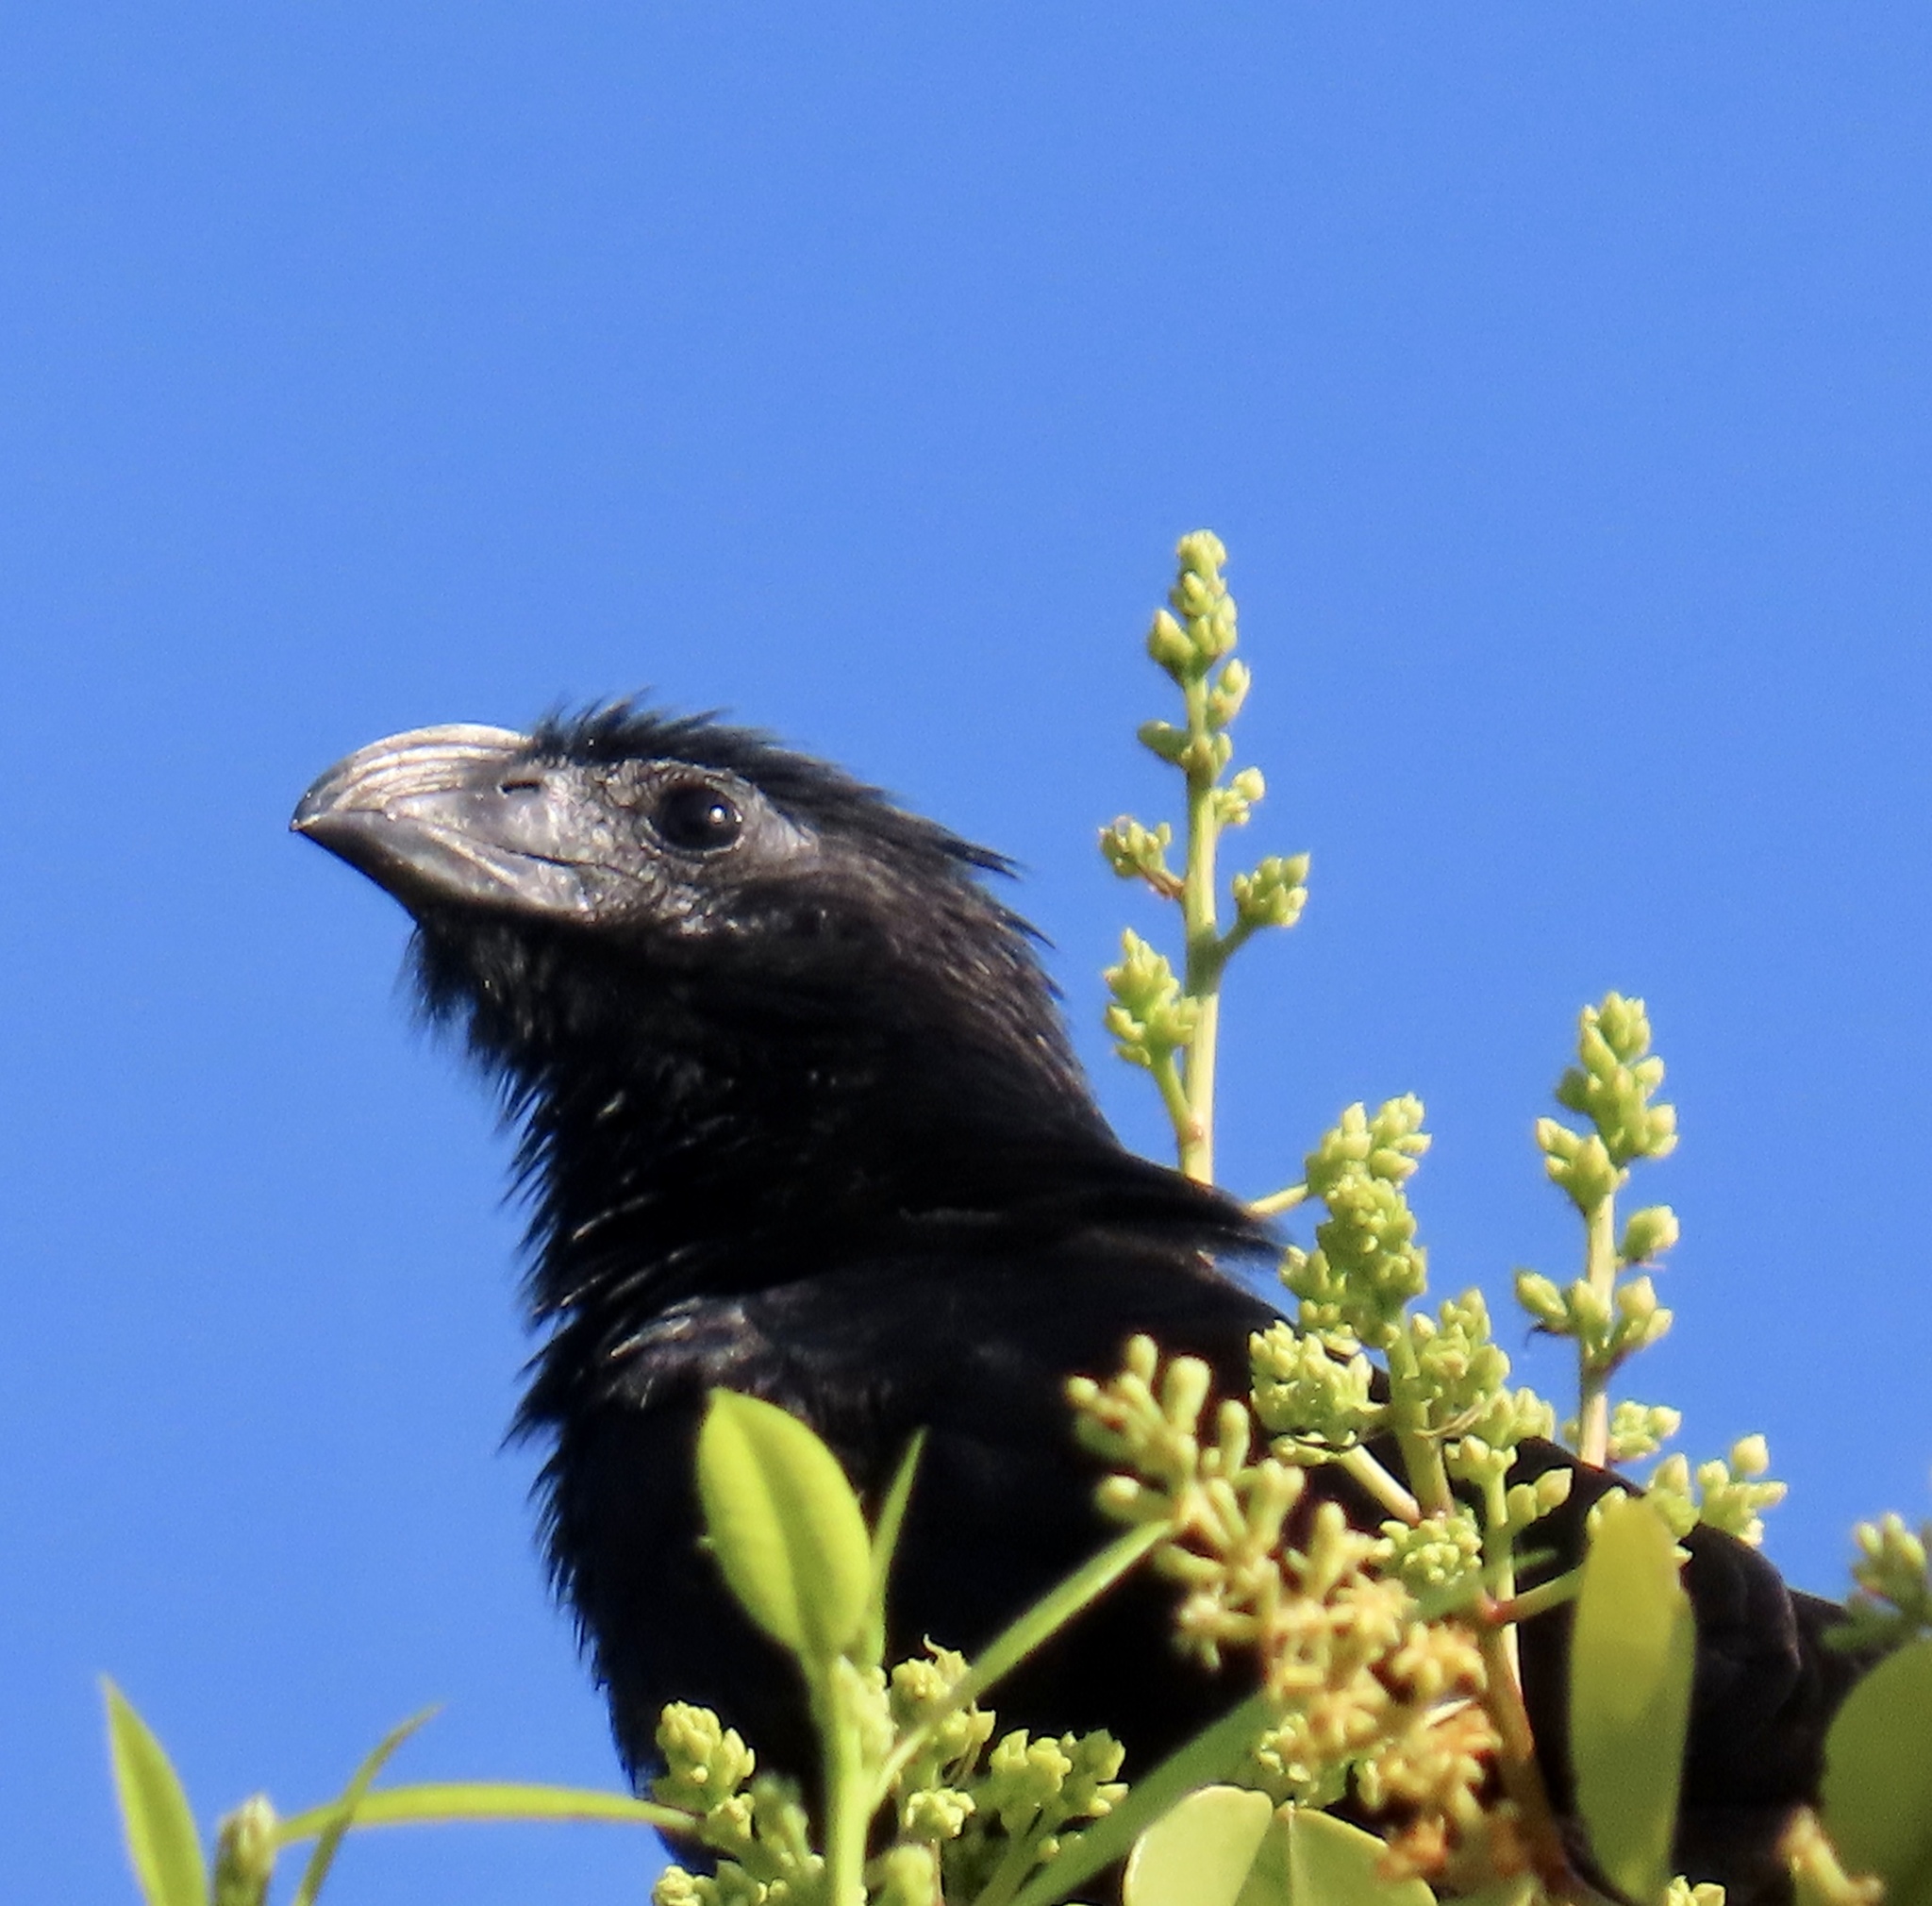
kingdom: Animalia
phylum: Chordata
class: Aves
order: Cuculiformes
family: Cuculidae
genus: Crotophaga
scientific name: Crotophaga sulcirostris
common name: Groove-billed ani
